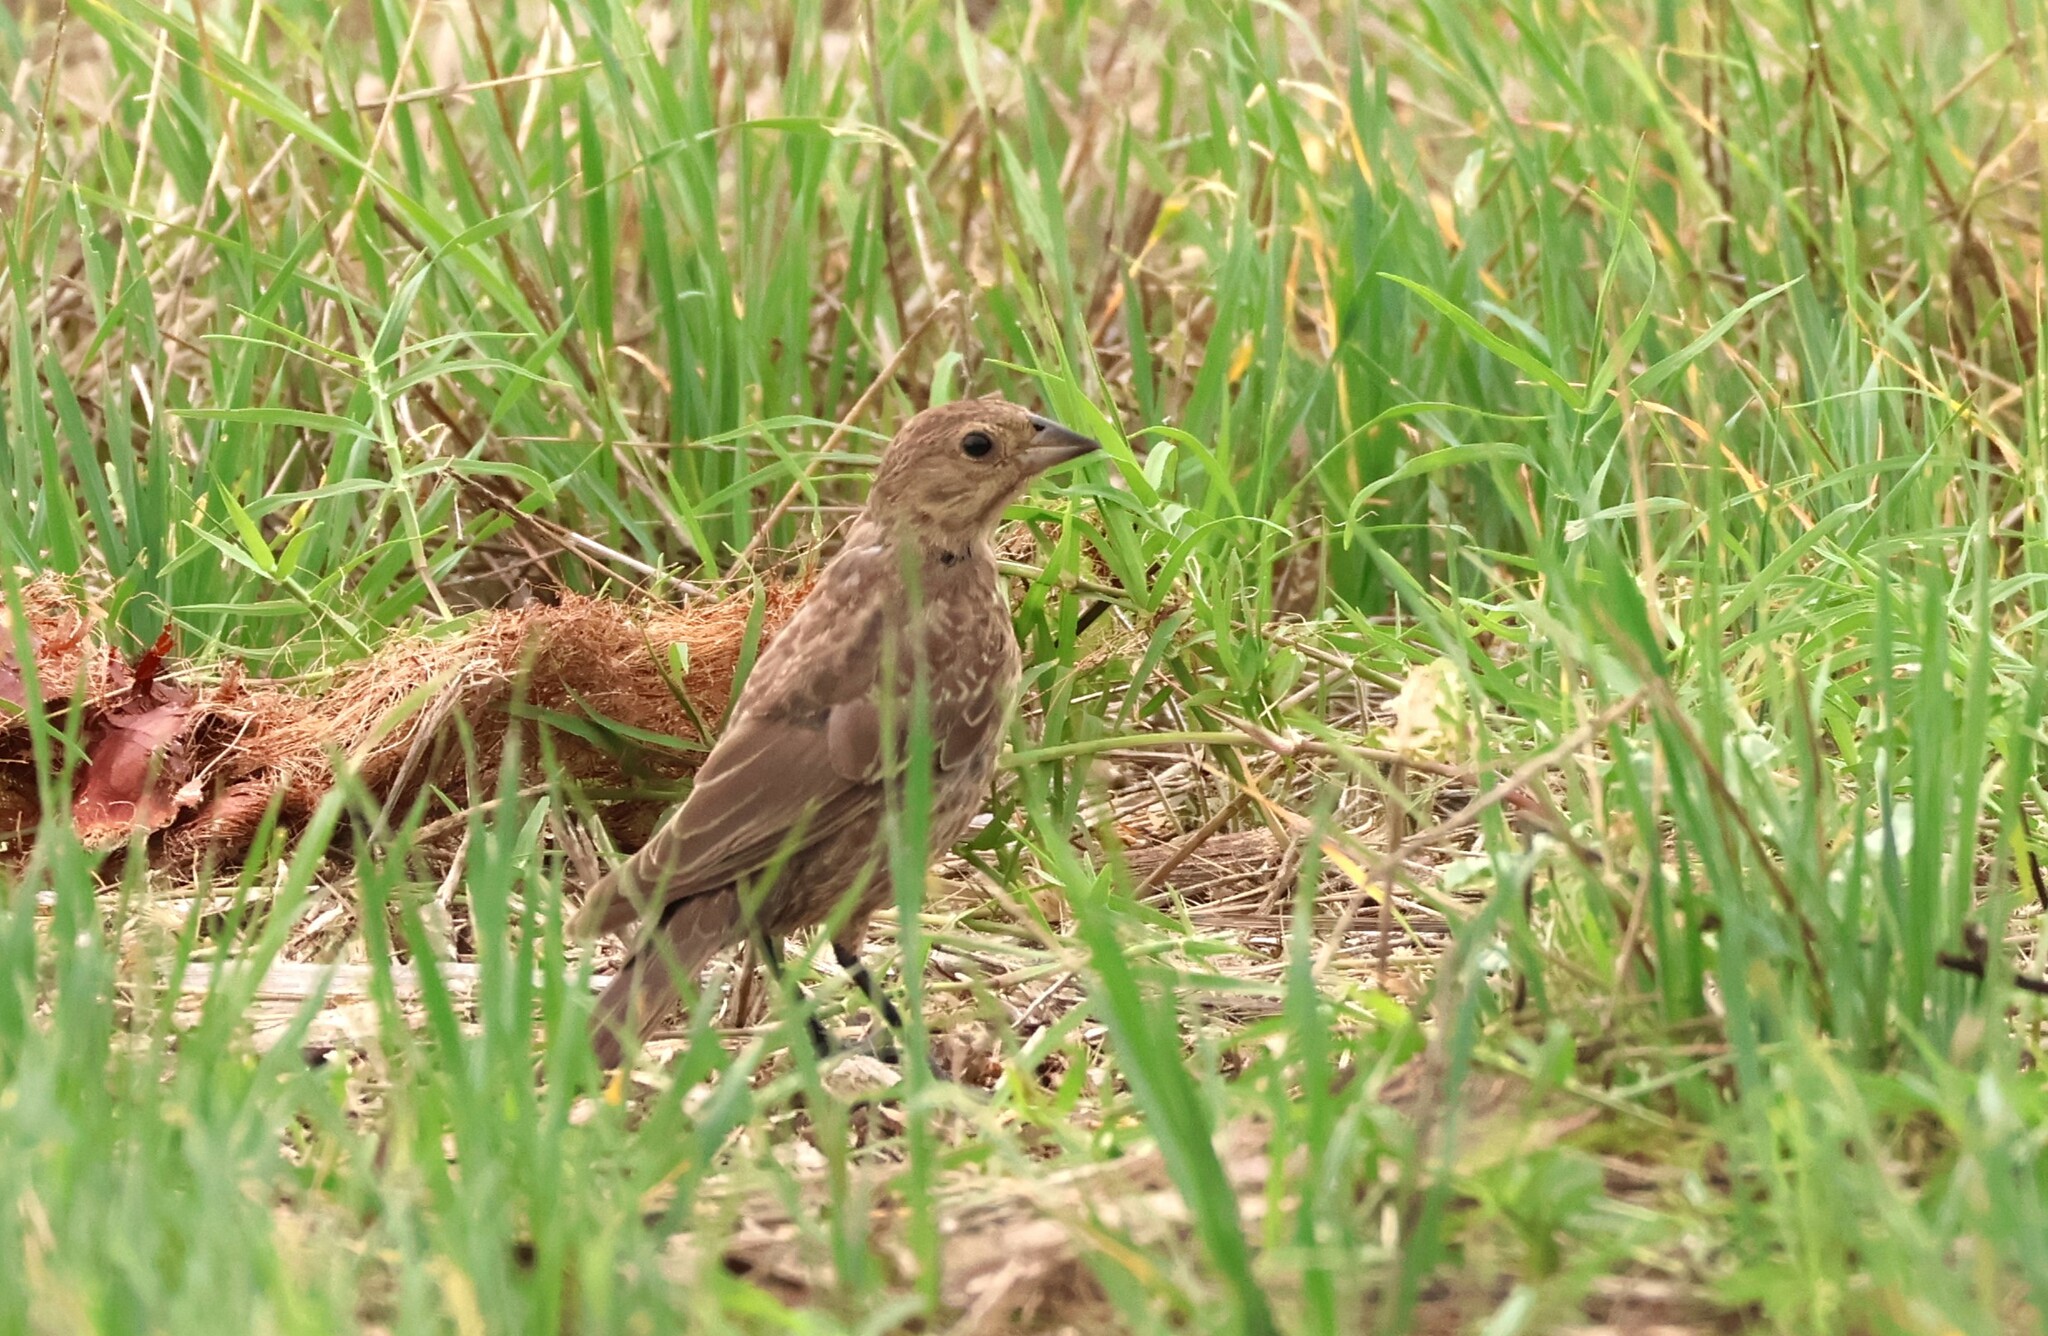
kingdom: Animalia
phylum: Chordata
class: Aves
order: Passeriformes
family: Icteridae
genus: Molothrus
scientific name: Molothrus ater
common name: Brown-headed cowbird
